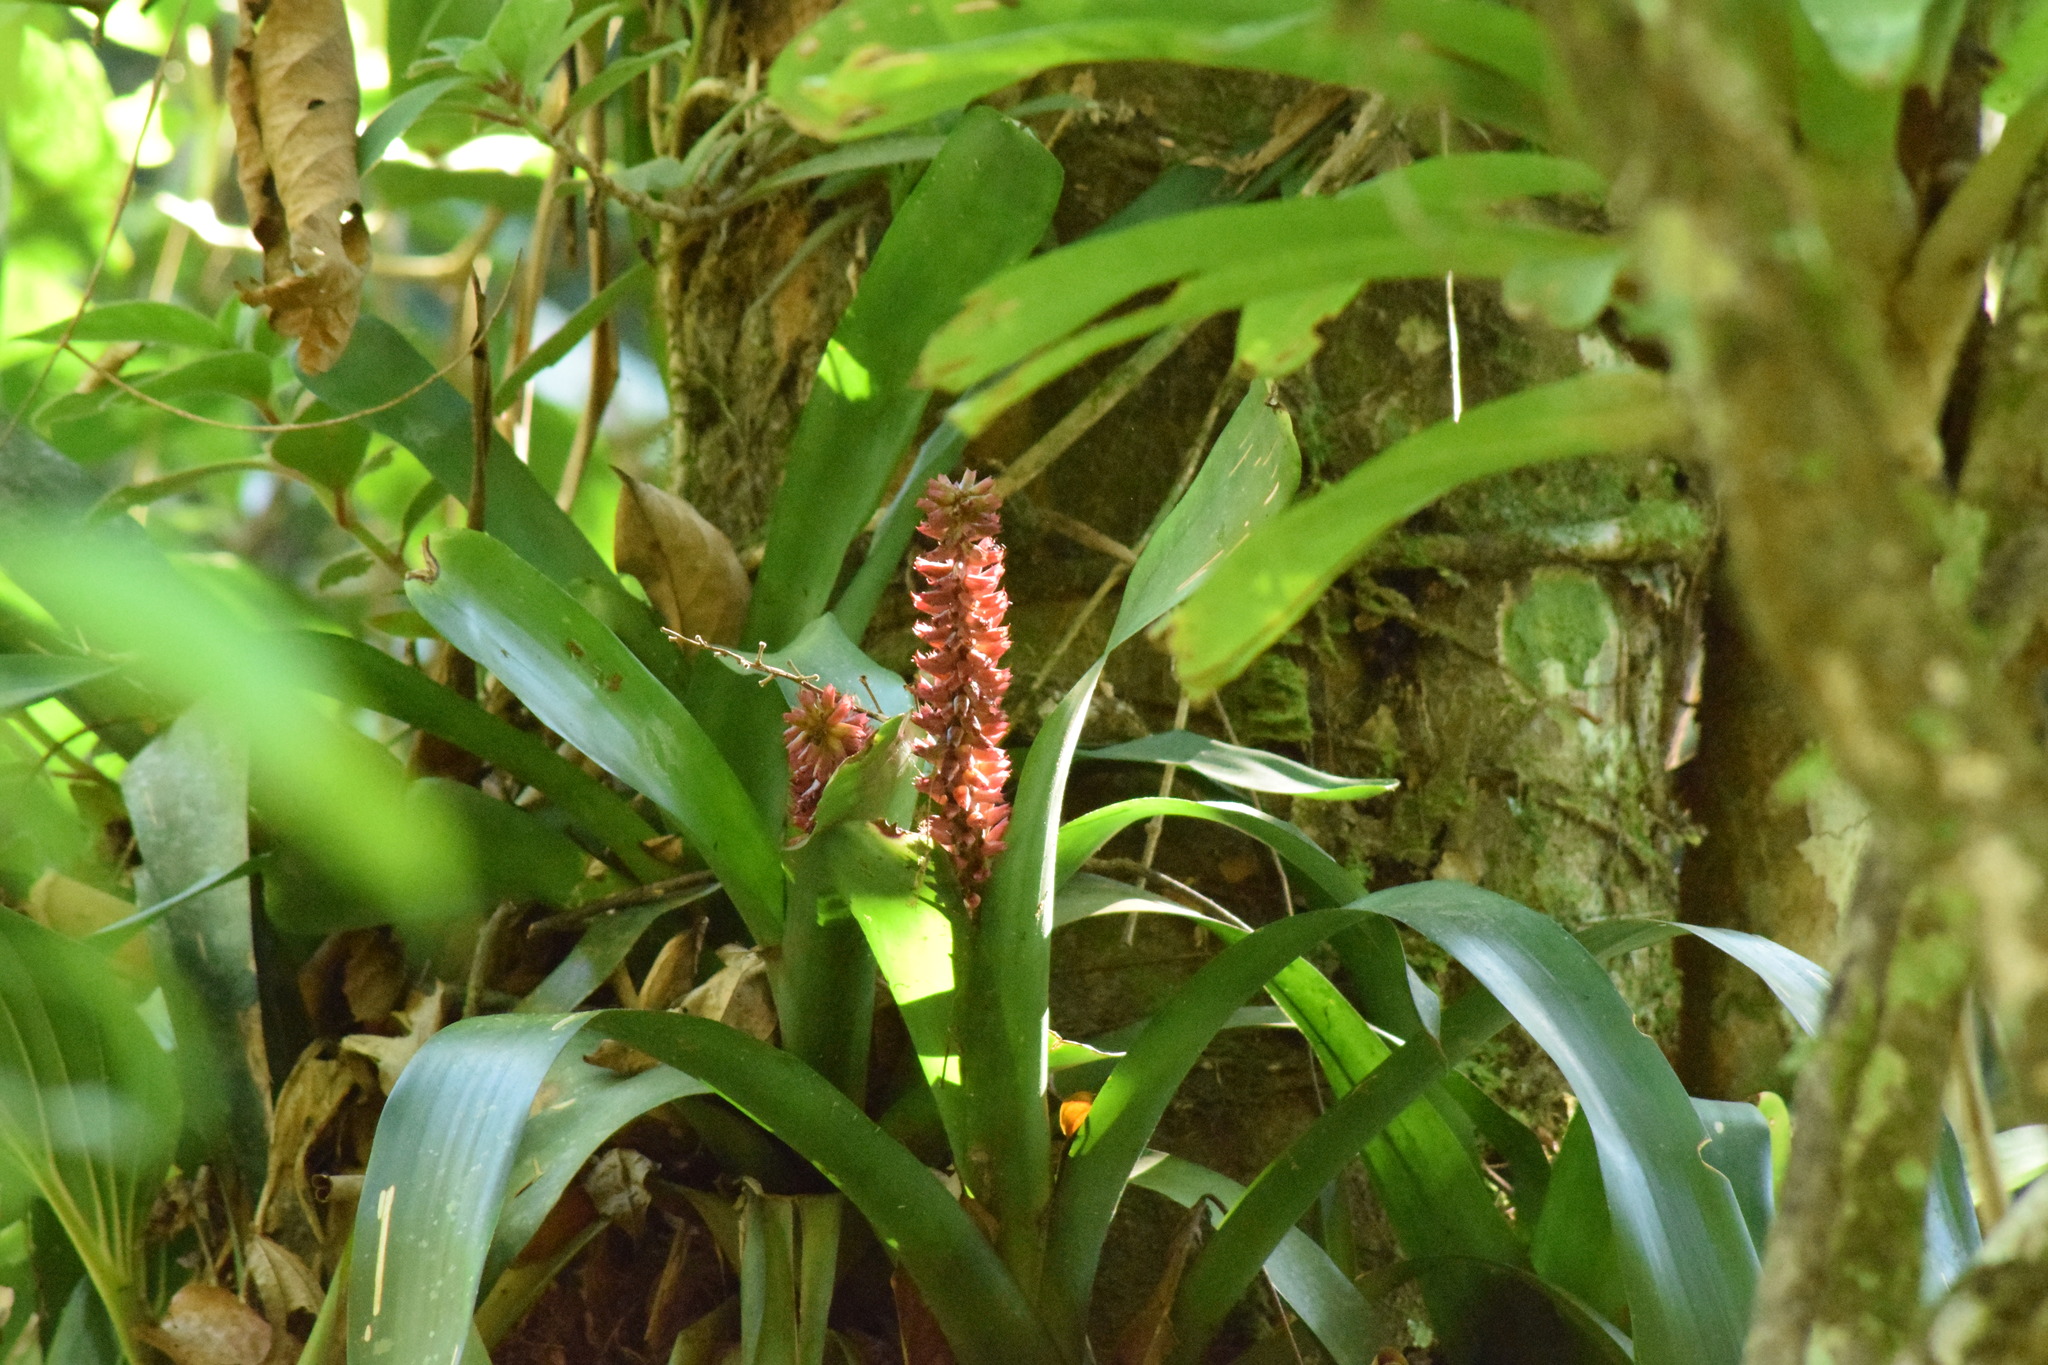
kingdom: Plantae
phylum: Tracheophyta
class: Liliopsida
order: Poales
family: Bromeliaceae
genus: Aechmea
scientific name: Aechmea cylindrata
